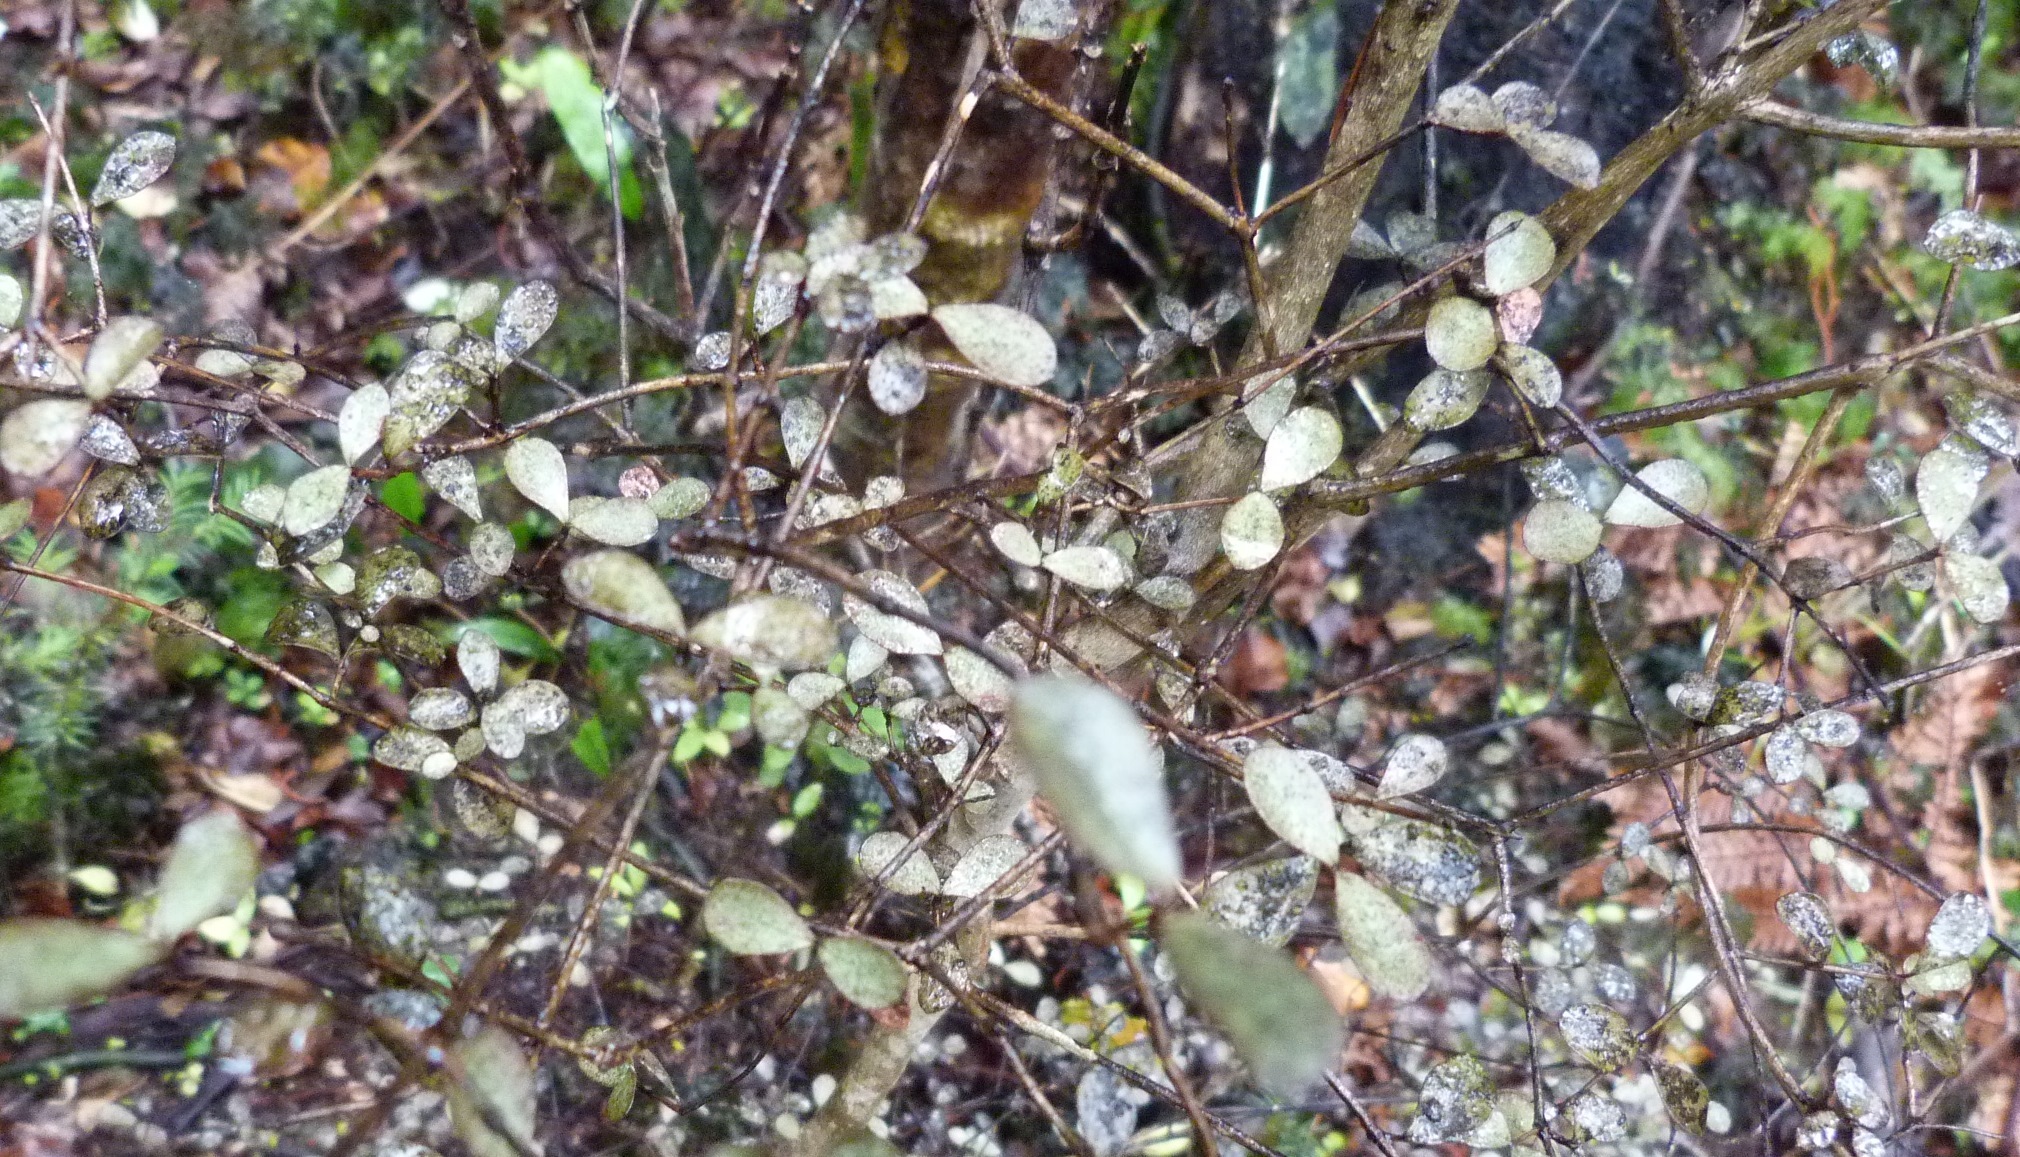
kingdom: Plantae
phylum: Tracheophyta
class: Magnoliopsida
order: Myrtales
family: Myrtaceae
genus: Neomyrtus
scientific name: Neomyrtus pedunculata
